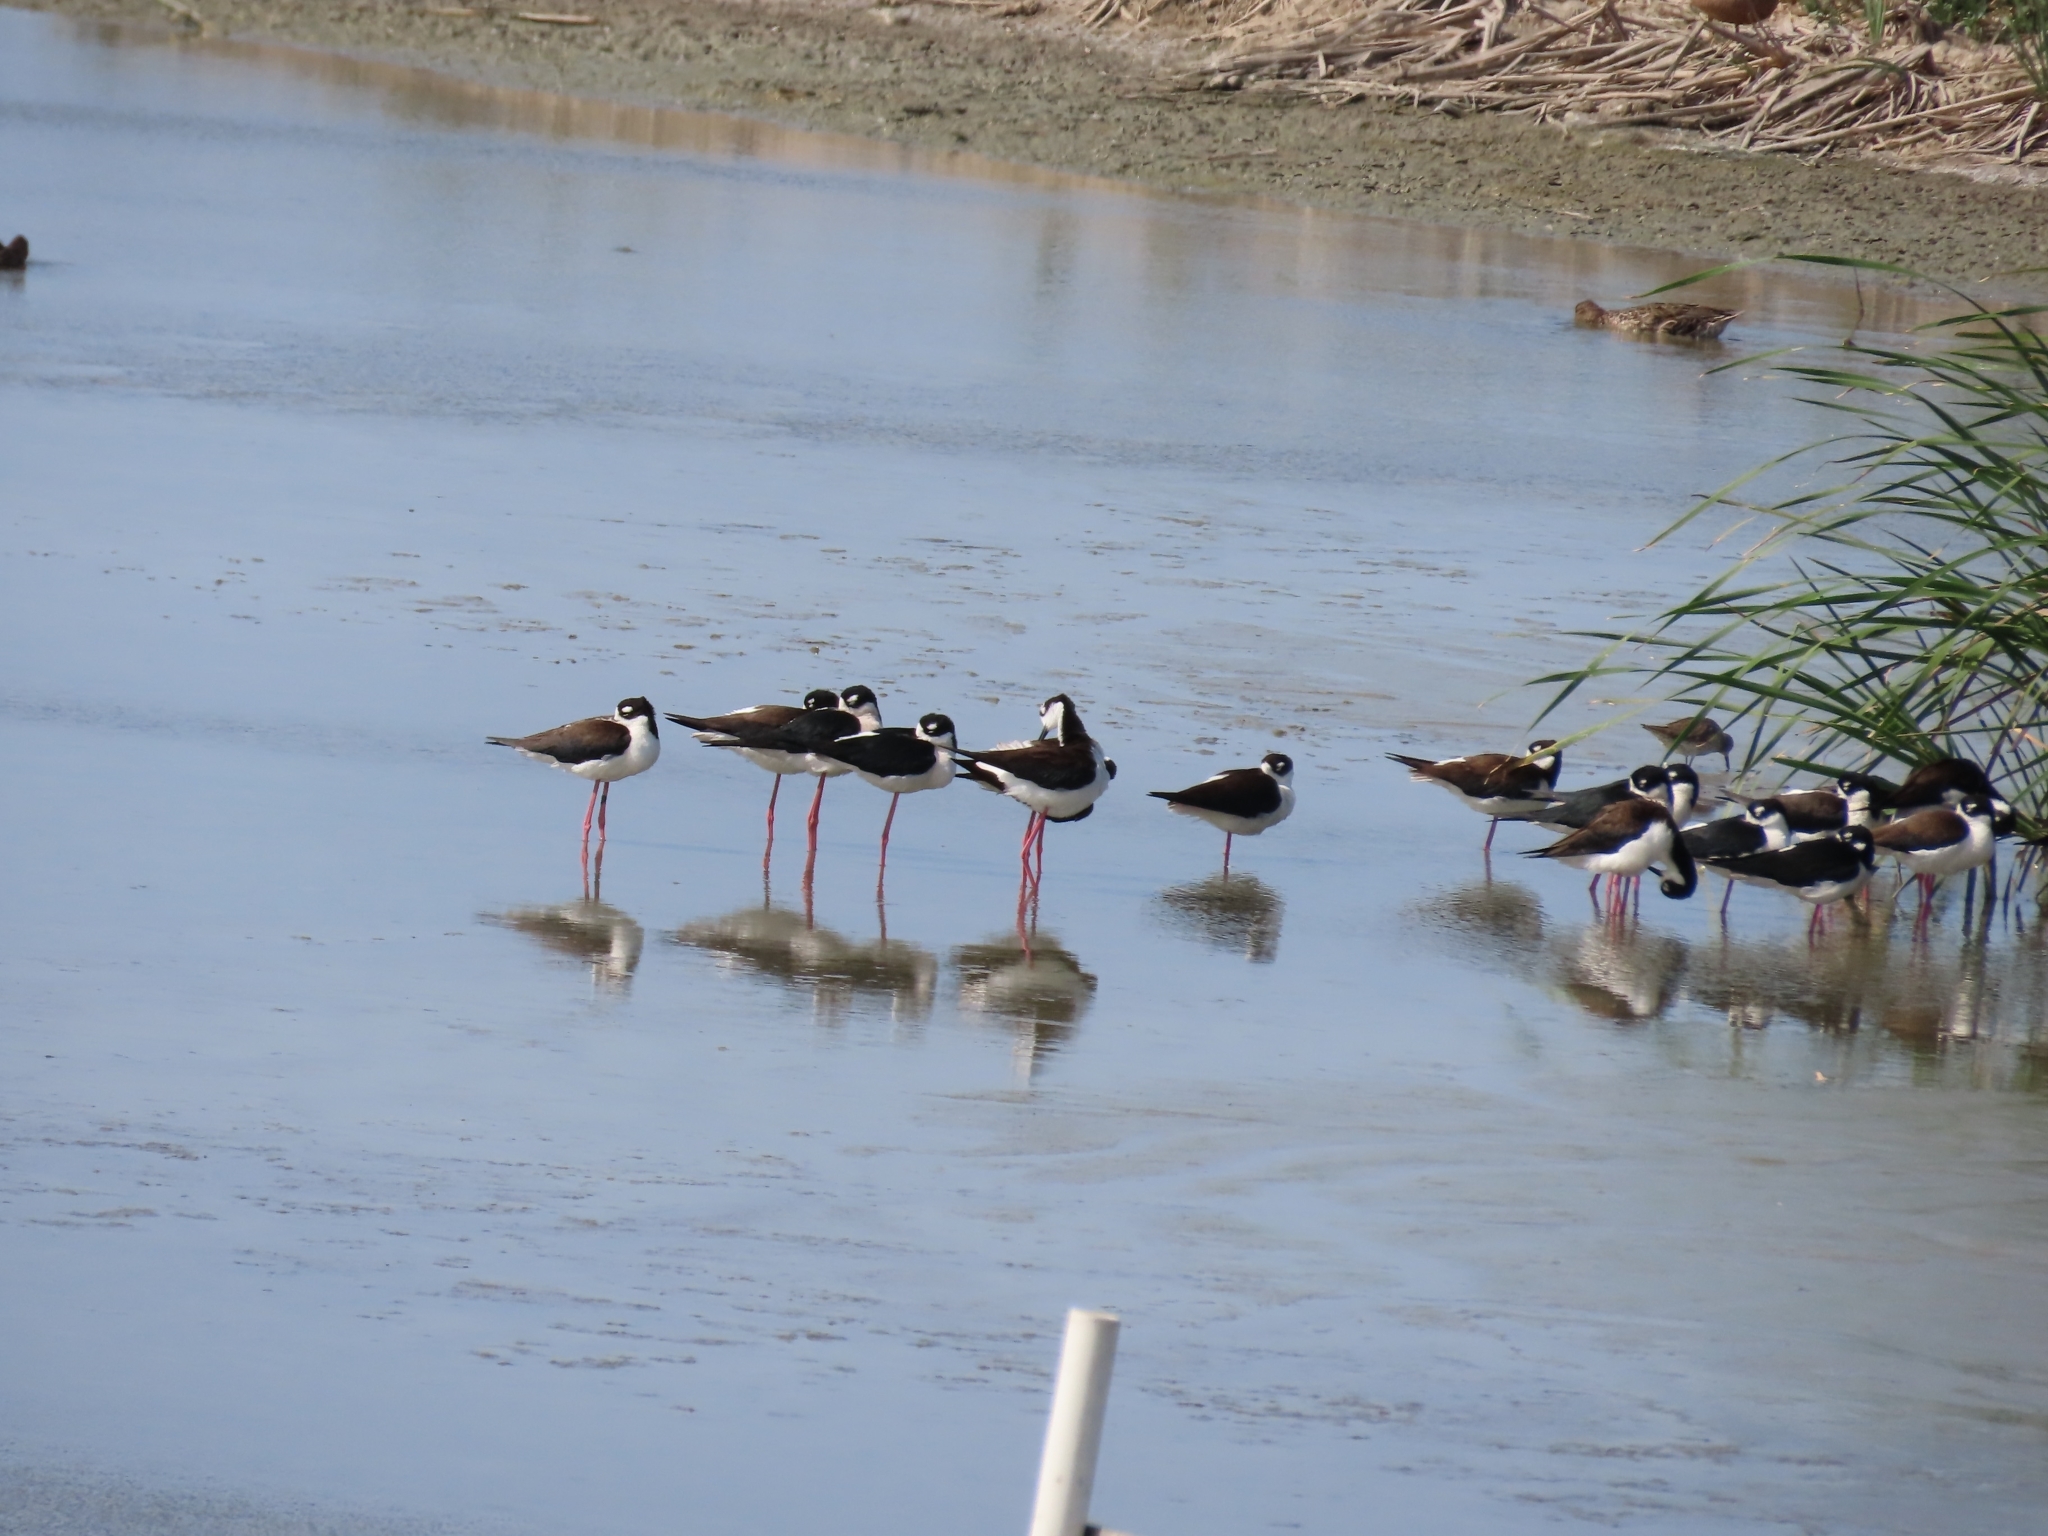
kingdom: Animalia
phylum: Chordata
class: Aves
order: Charadriiformes
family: Recurvirostridae
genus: Himantopus
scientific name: Himantopus mexicanus
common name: Black-necked stilt
